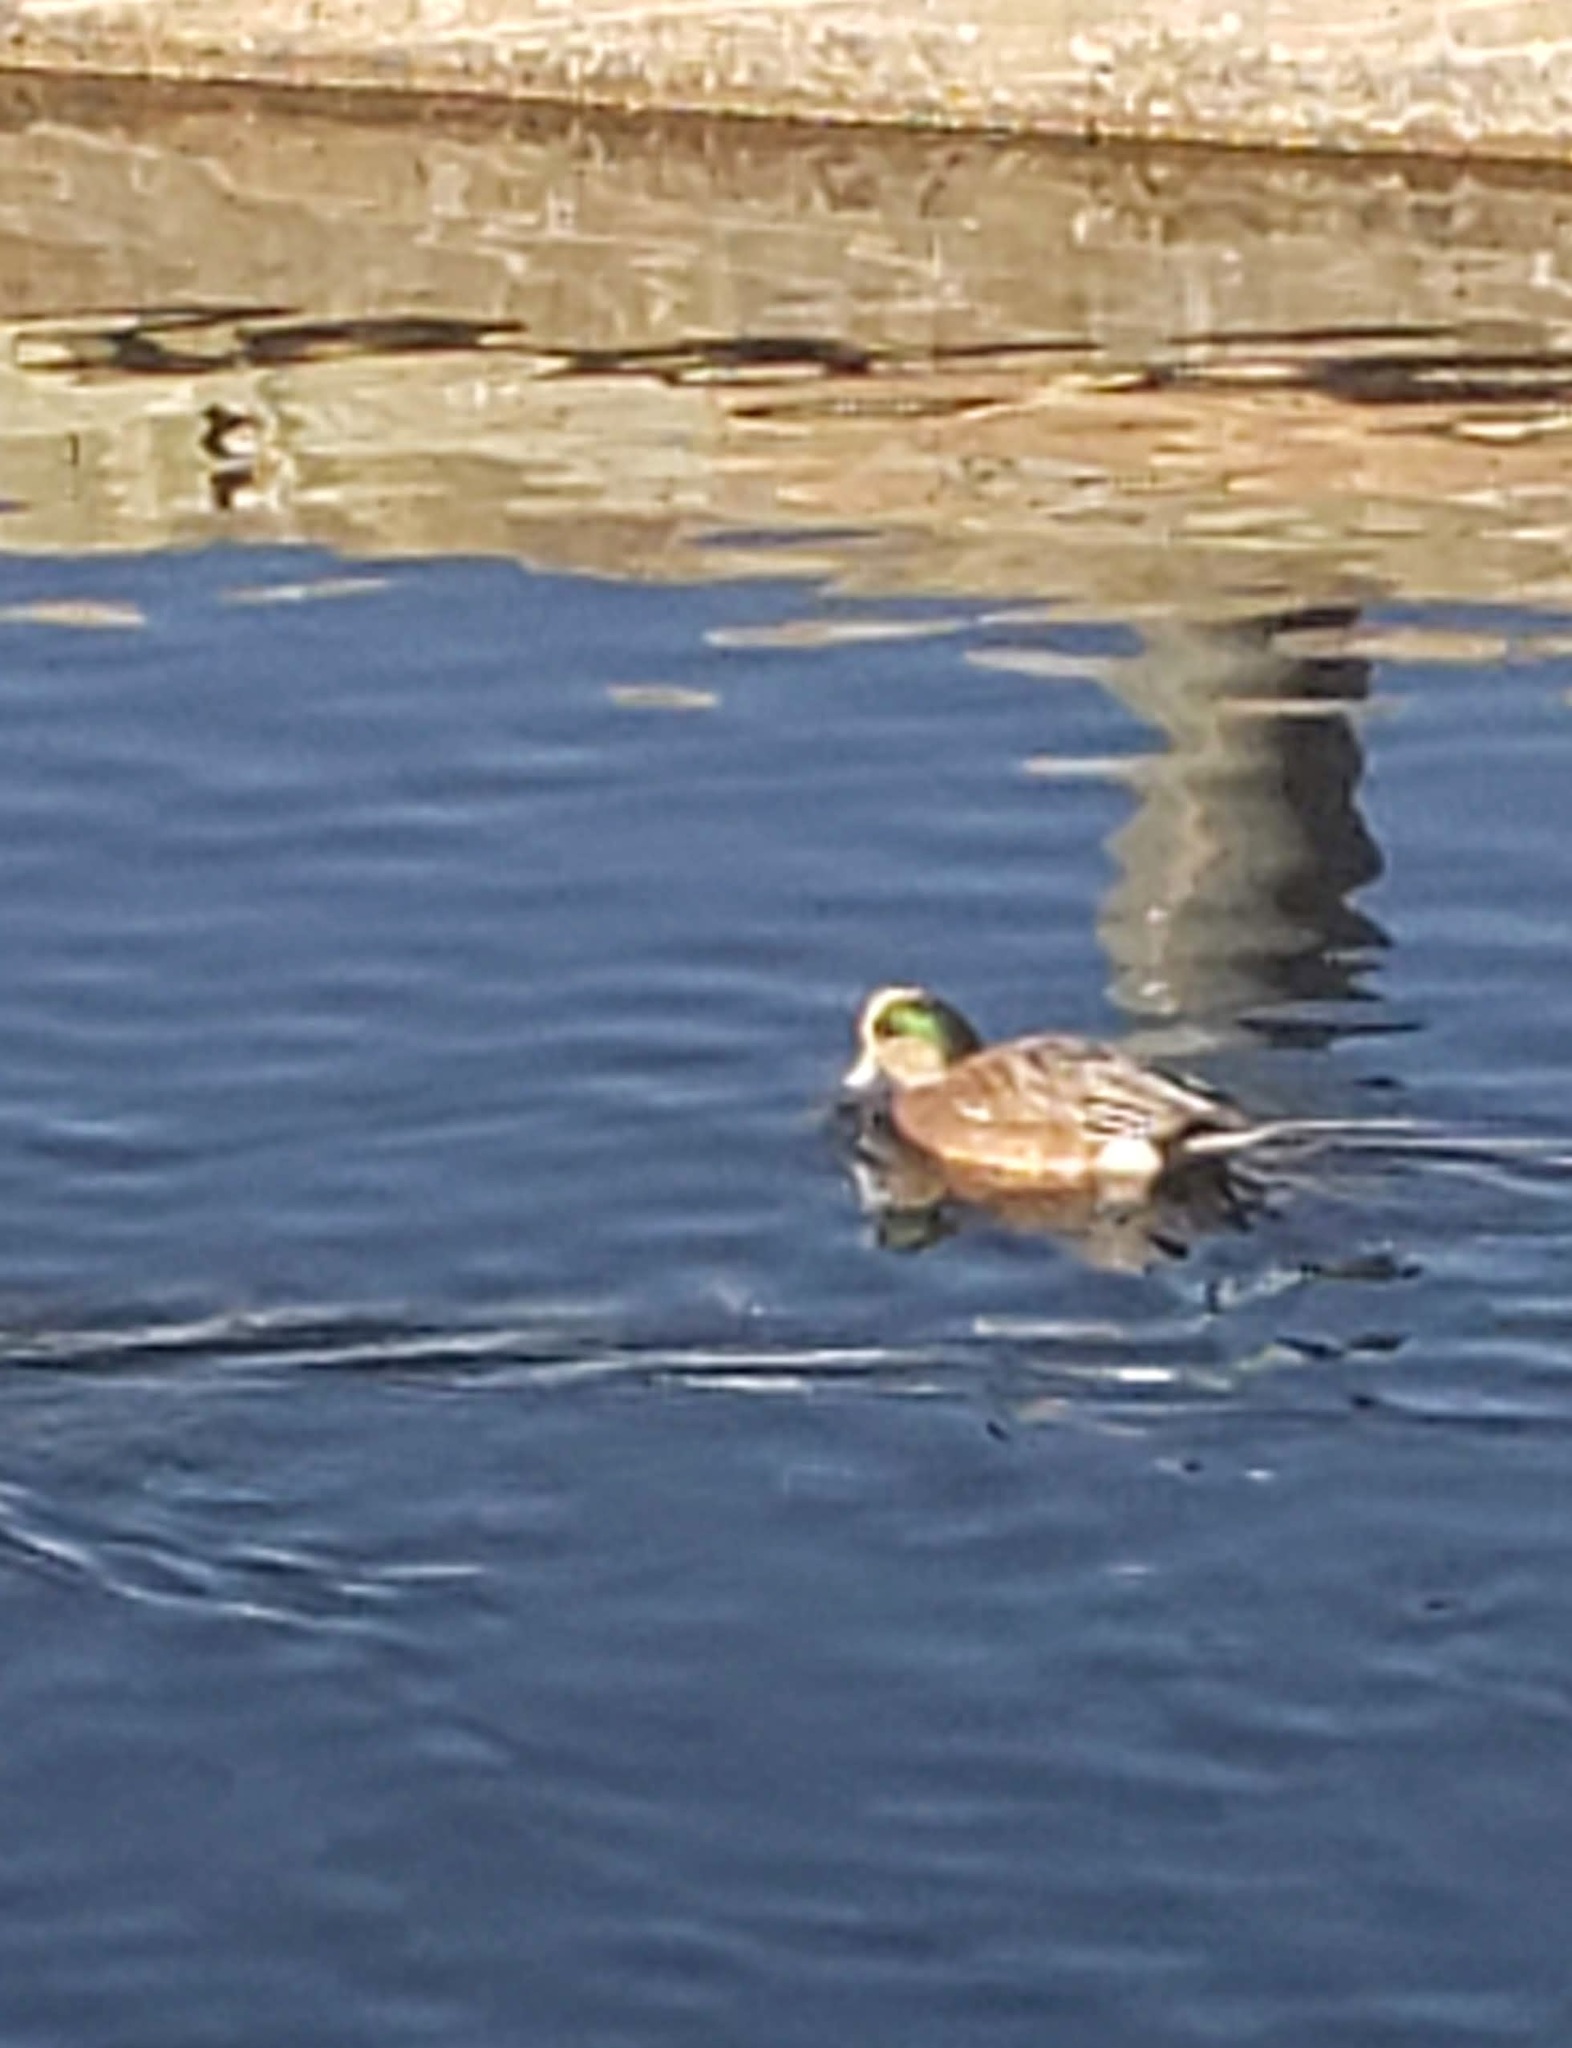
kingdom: Animalia
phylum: Chordata
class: Aves
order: Anseriformes
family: Anatidae
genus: Mareca
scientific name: Mareca americana
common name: American wigeon
